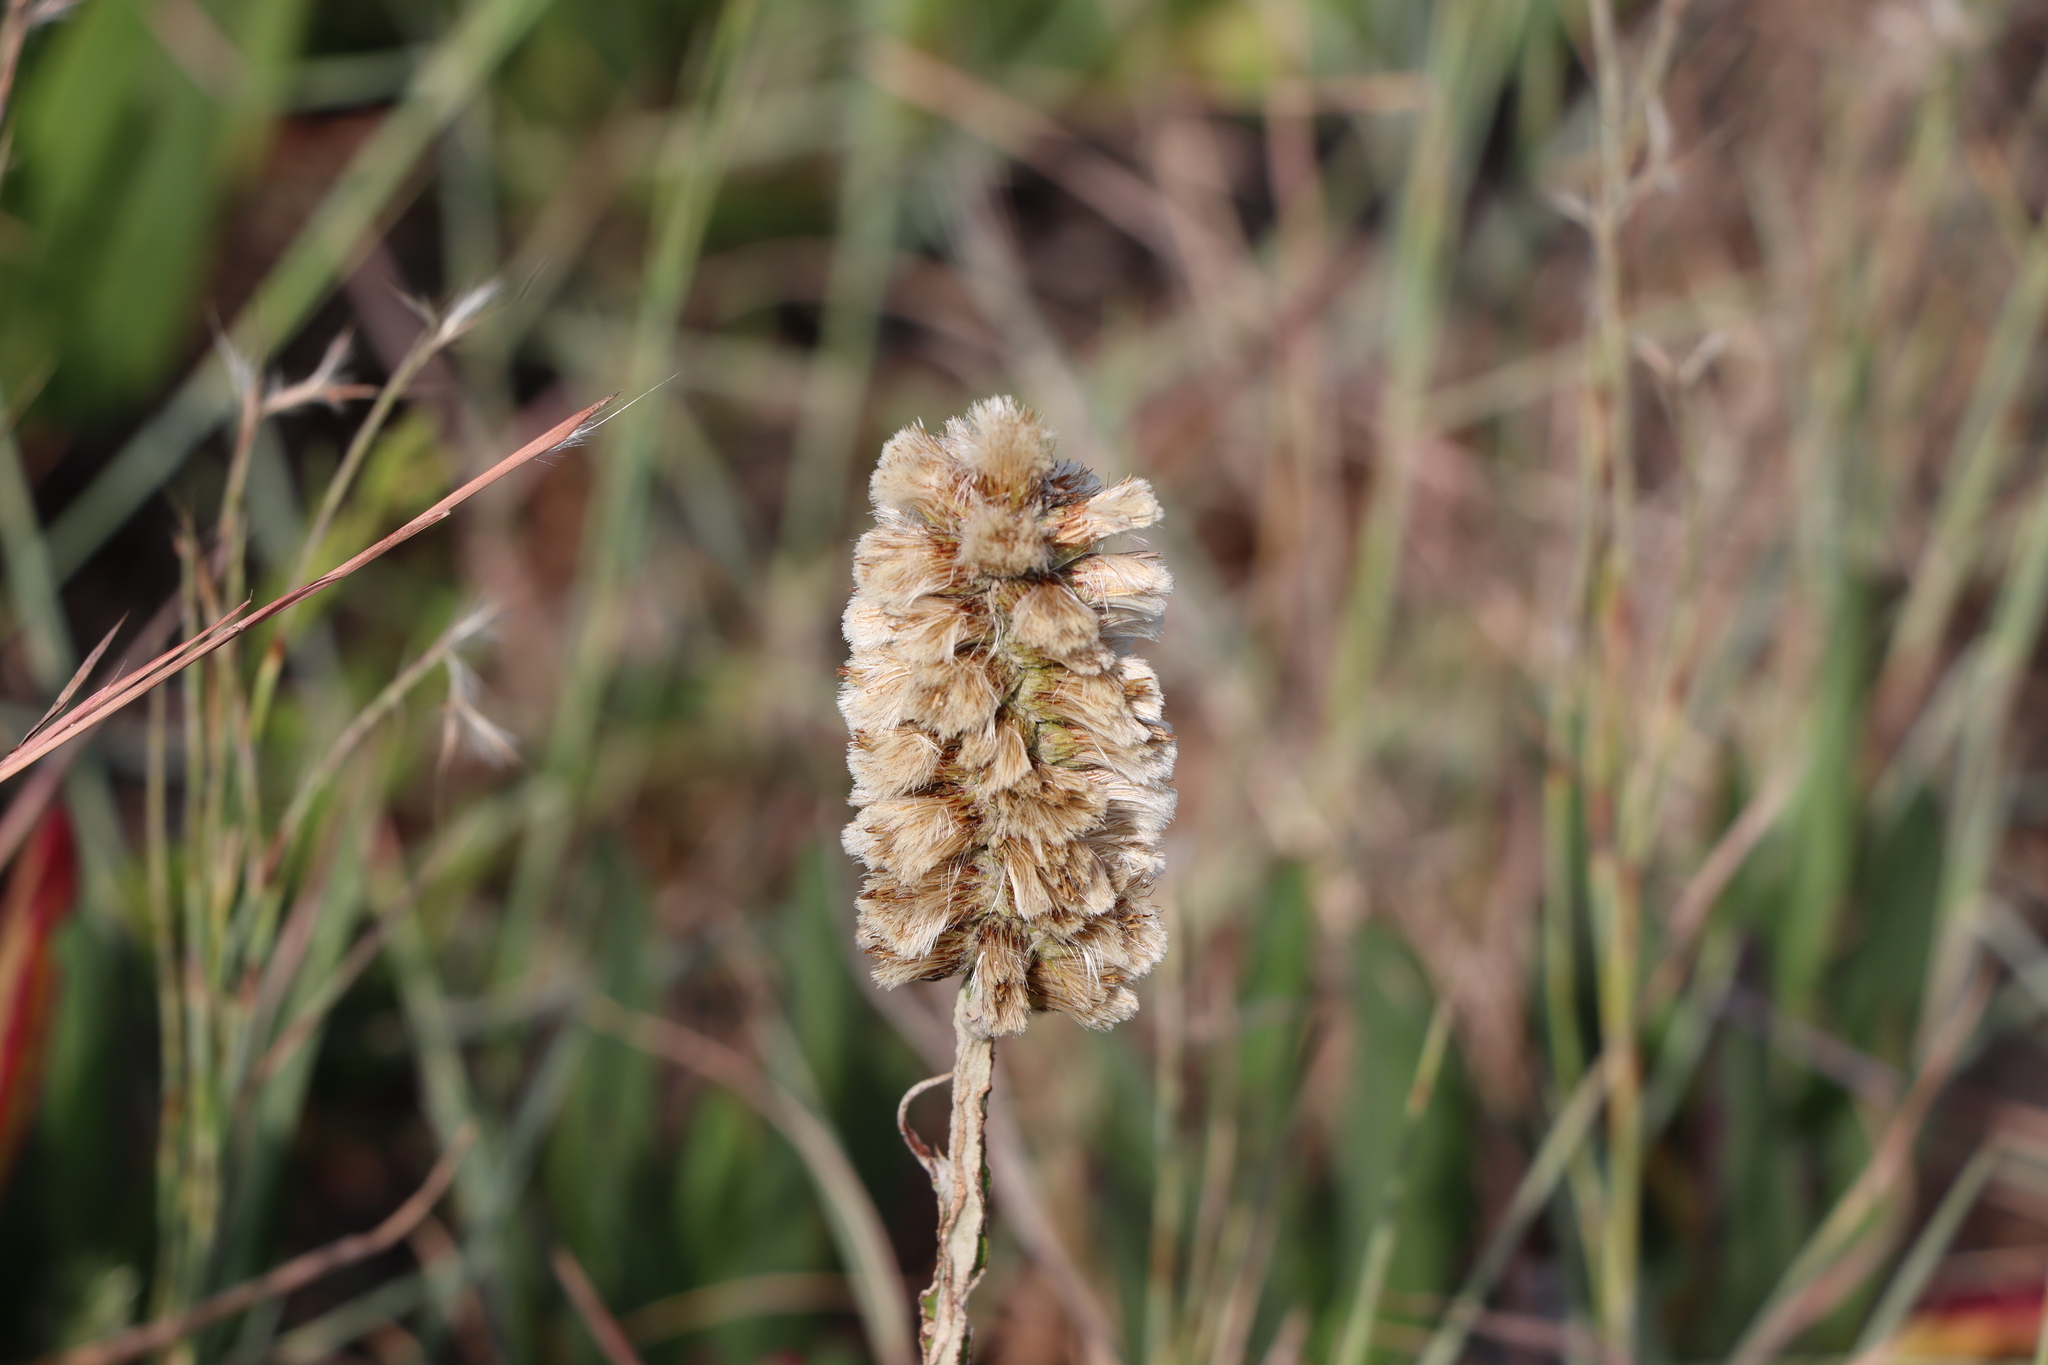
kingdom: Plantae
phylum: Tracheophyta
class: Magnoliopsida
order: Asterales
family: Asteraceae
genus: Pterocaulon
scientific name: Pterocaulon lorentzii
